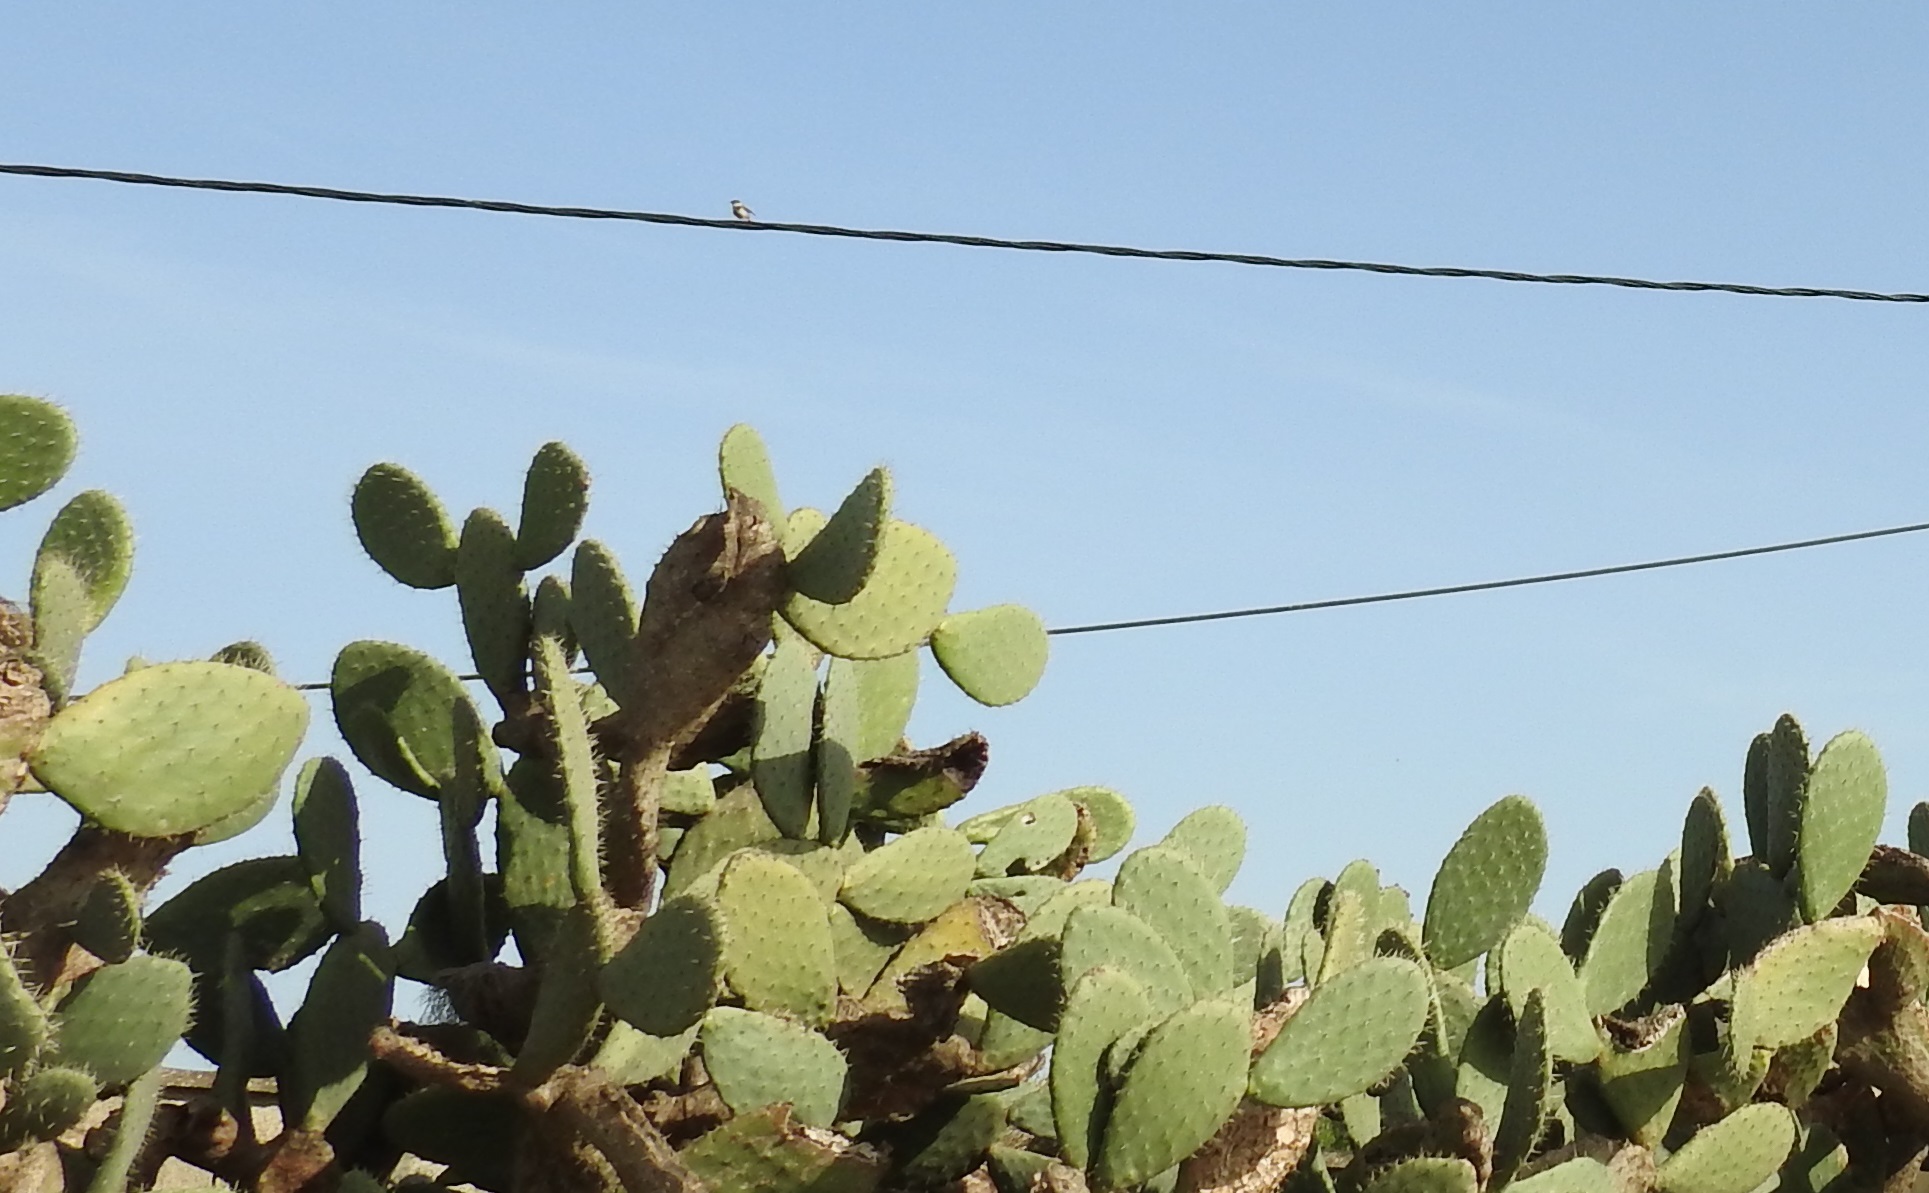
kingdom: Plantae
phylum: Tracheophyta
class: Magnoliopsida
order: Caryophyllales
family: Cactaceae
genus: Opuntia
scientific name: Opuntia maxima
